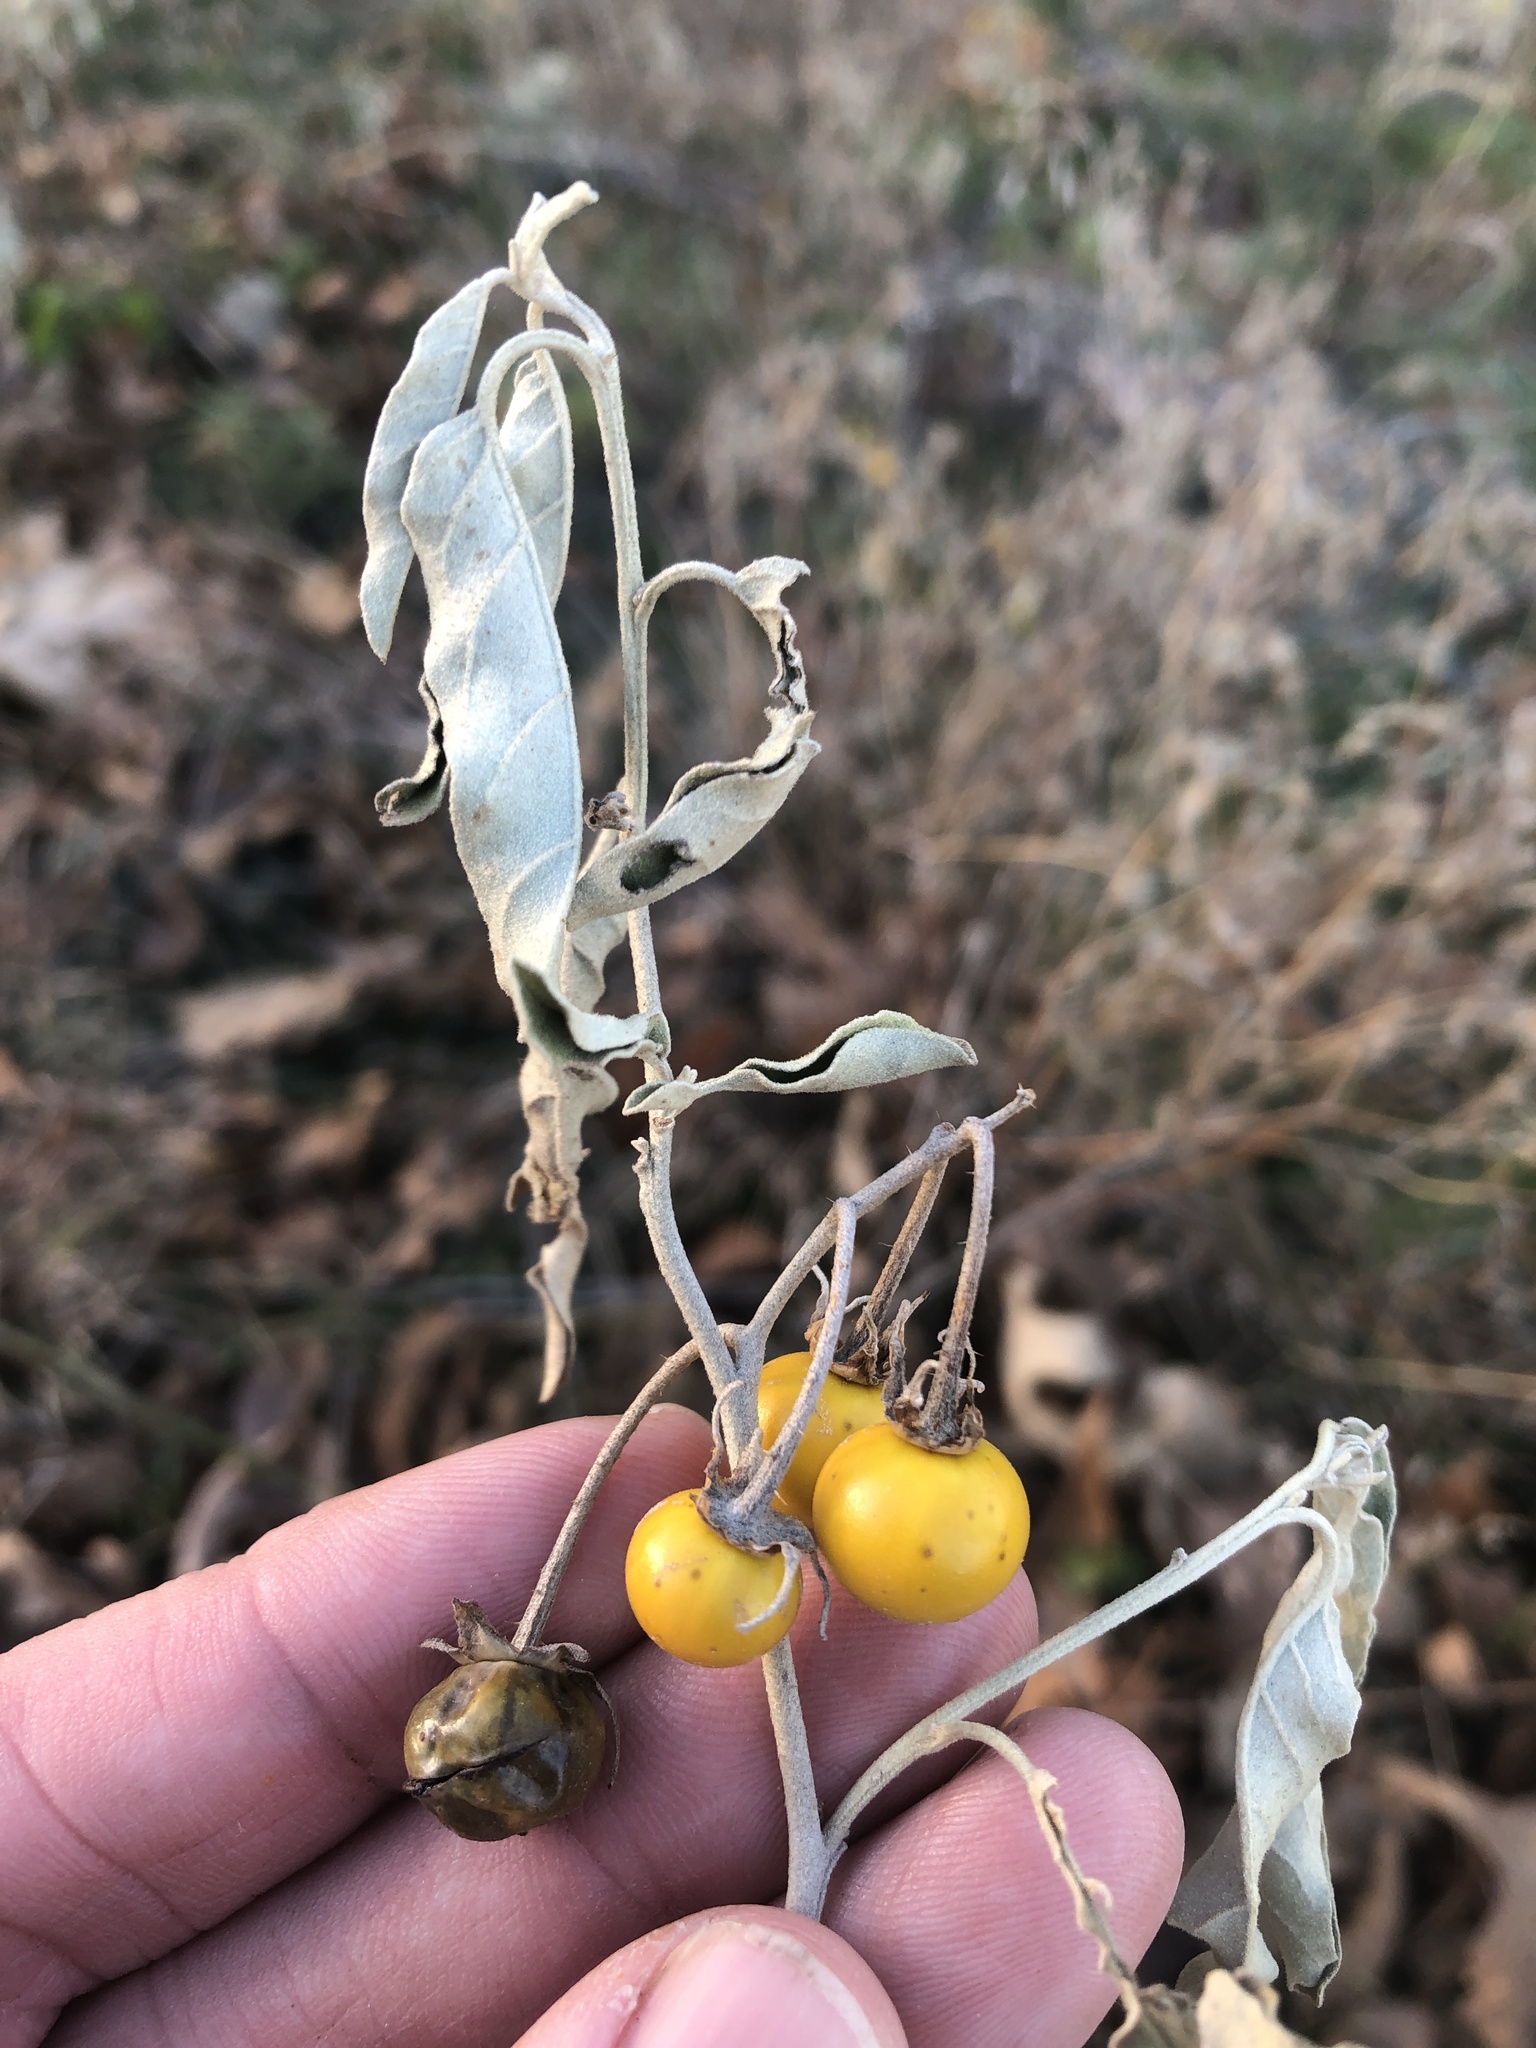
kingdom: Plantae
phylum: Tracheophyta
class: Magnoliopsida
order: Solanales
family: Solanaceae
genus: Solanum
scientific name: Solanum elaeagnifolium
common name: Silverleaf nightshade
